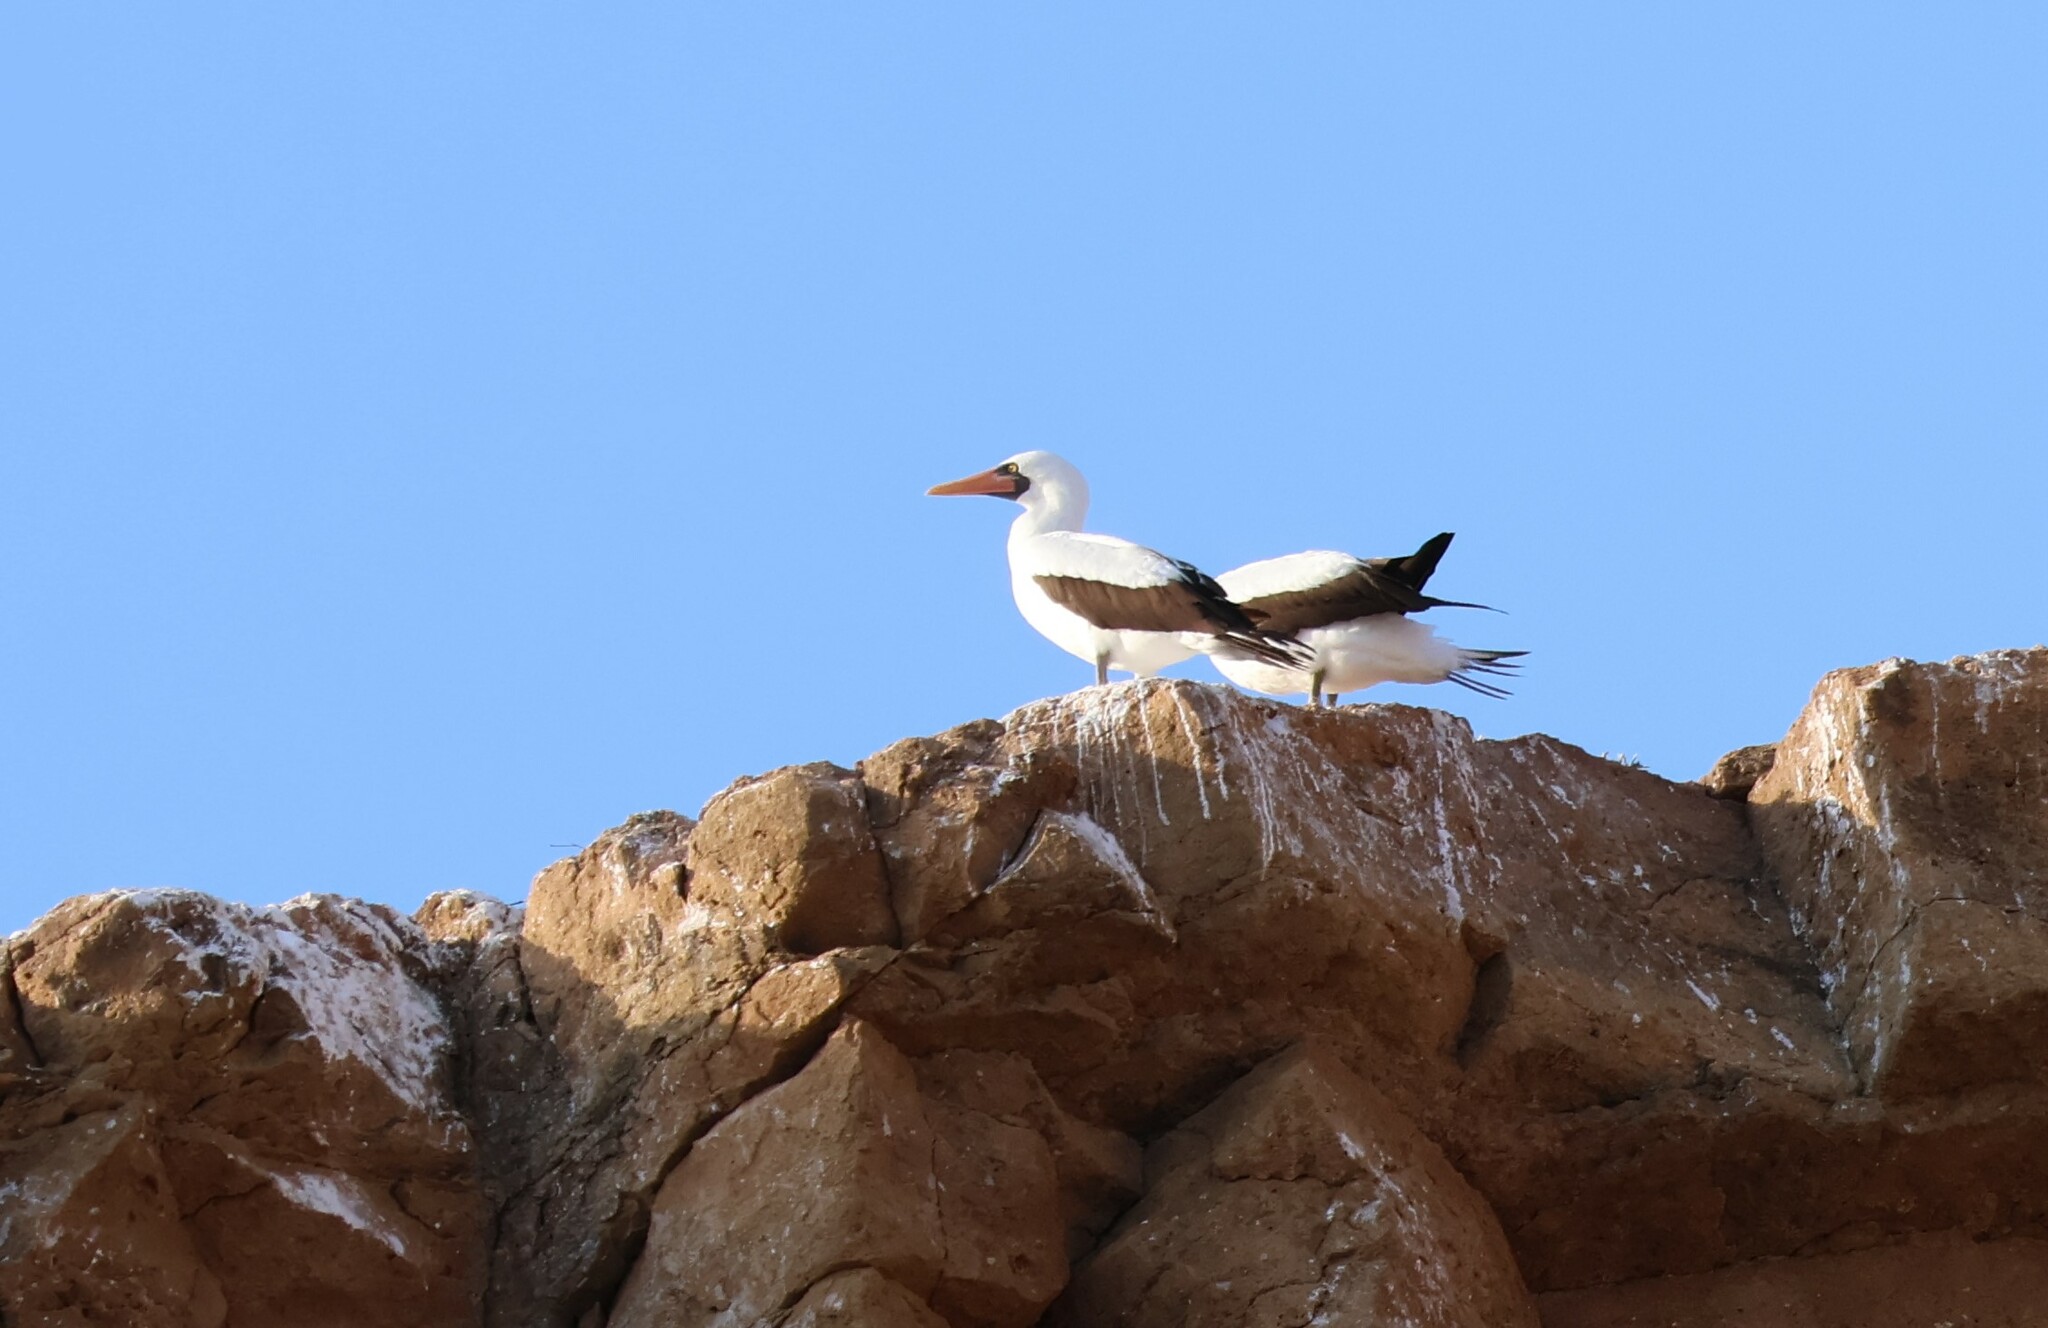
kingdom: Animalia
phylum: Chordata
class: Aves
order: Suliformes
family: Sulidae
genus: Sula
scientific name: Sula granti
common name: Nazca booby
